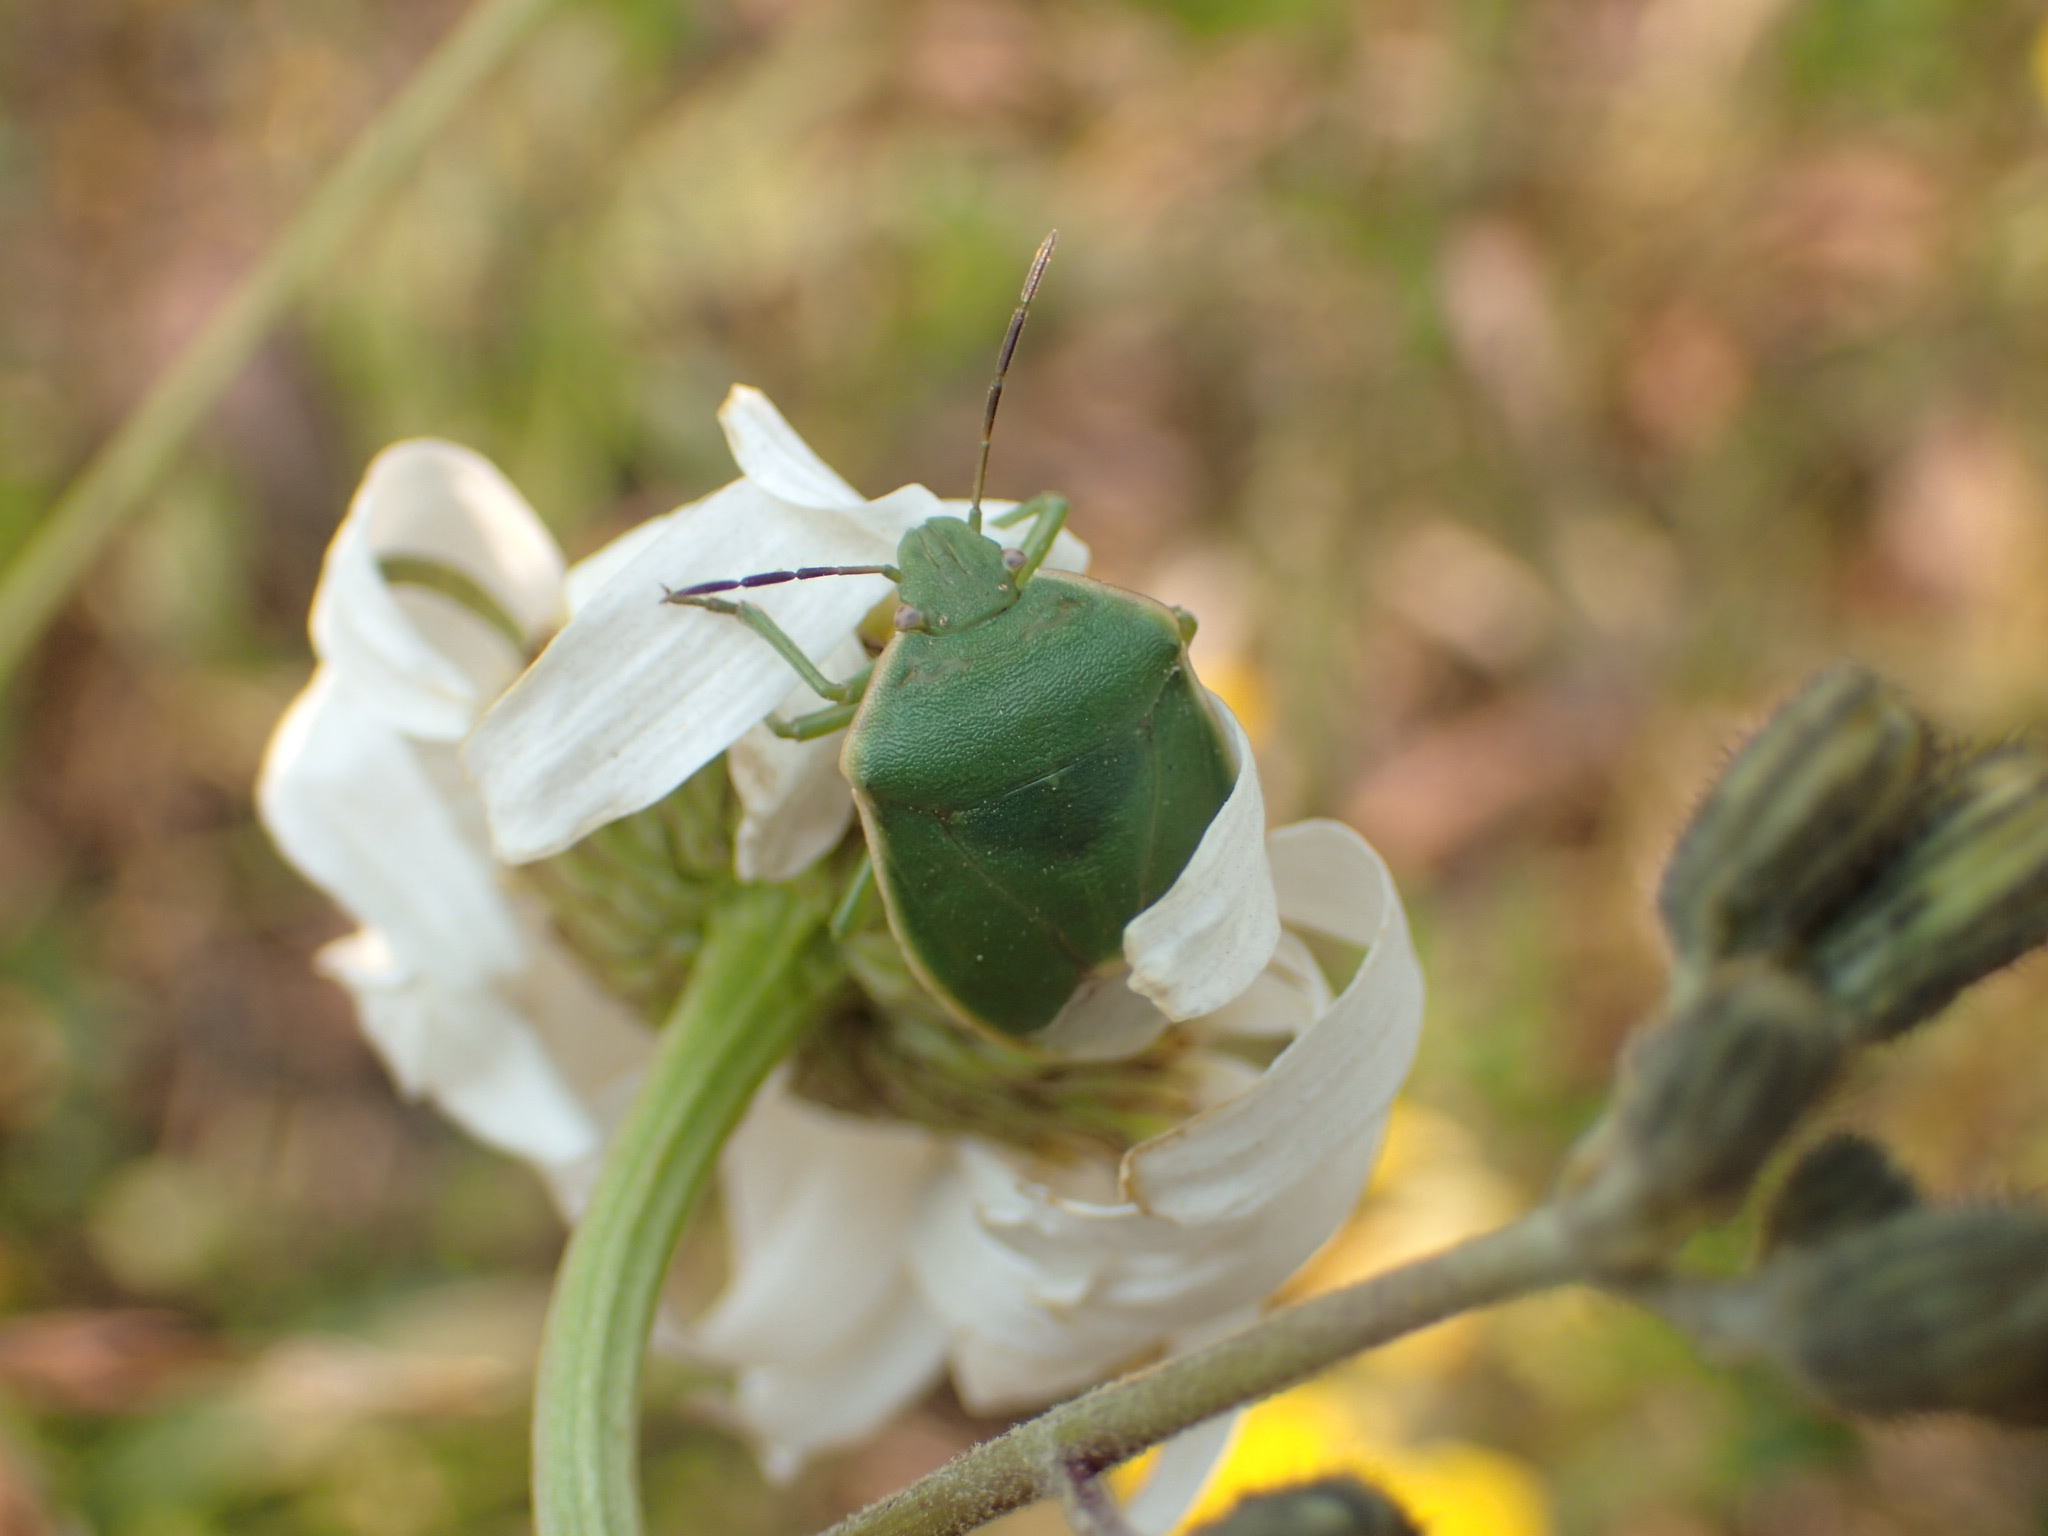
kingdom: Animalia
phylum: Arthropoda
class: Insecta
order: Hemiptera
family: Pentatomidae
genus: Chlorochroa
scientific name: Chlorochroa persimilis
